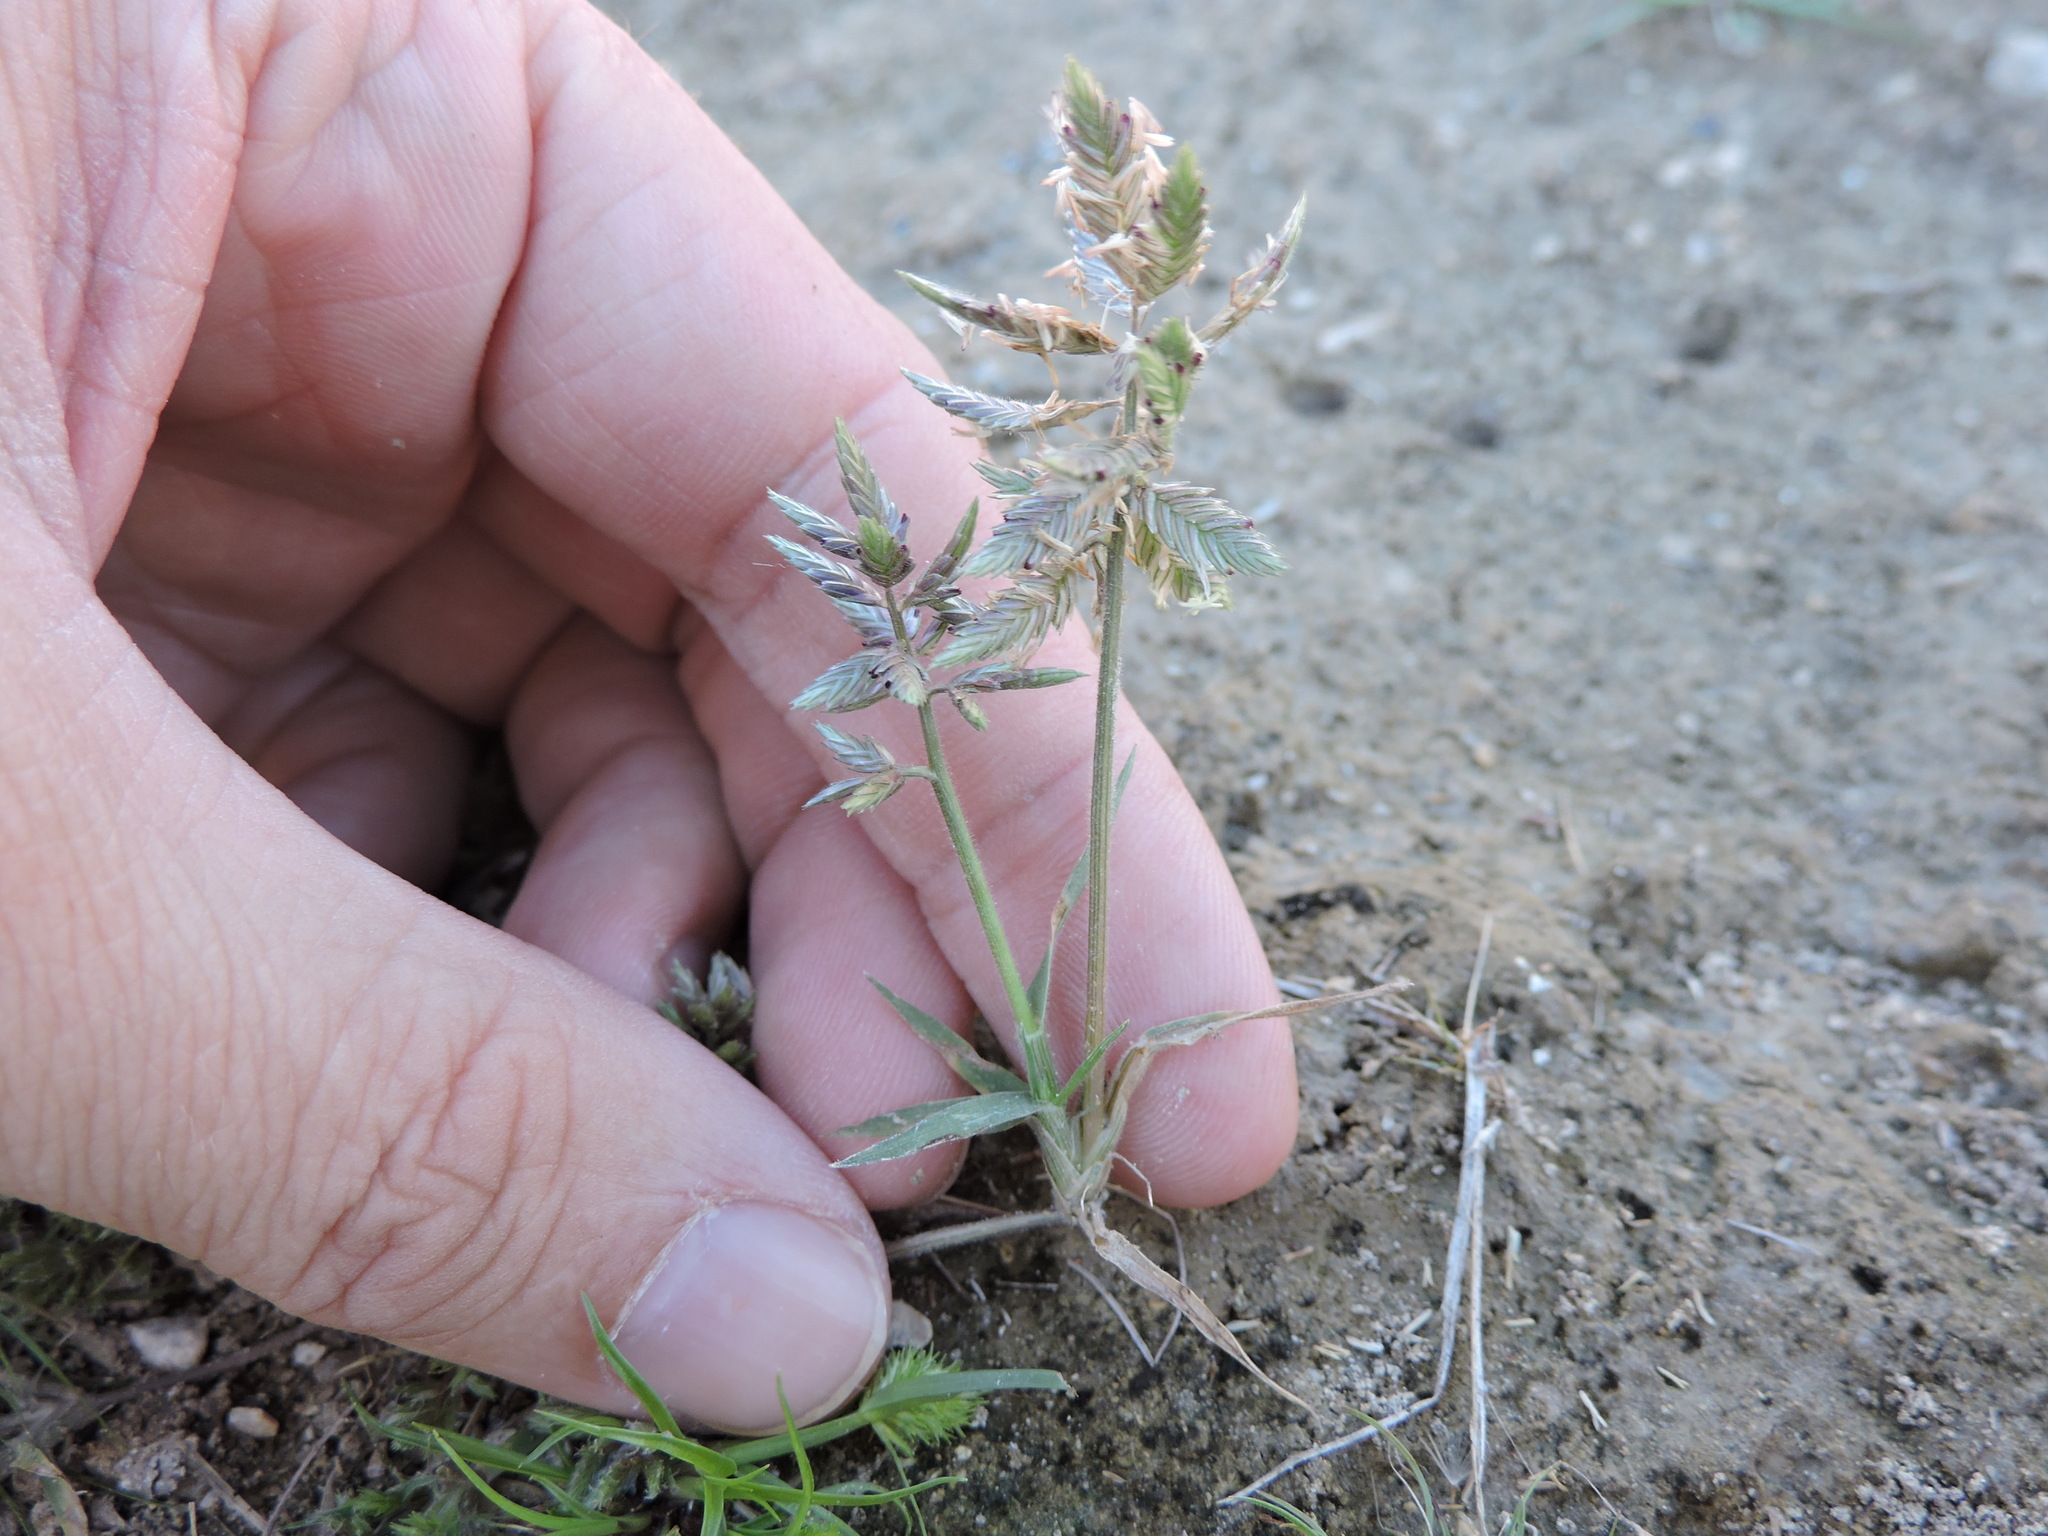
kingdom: Plantae
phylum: Tracheophyta
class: Liliopsida
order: Poales
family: Poaceae
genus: Eragrostis
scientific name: Eragrostis reptans
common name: Creeping love grass
